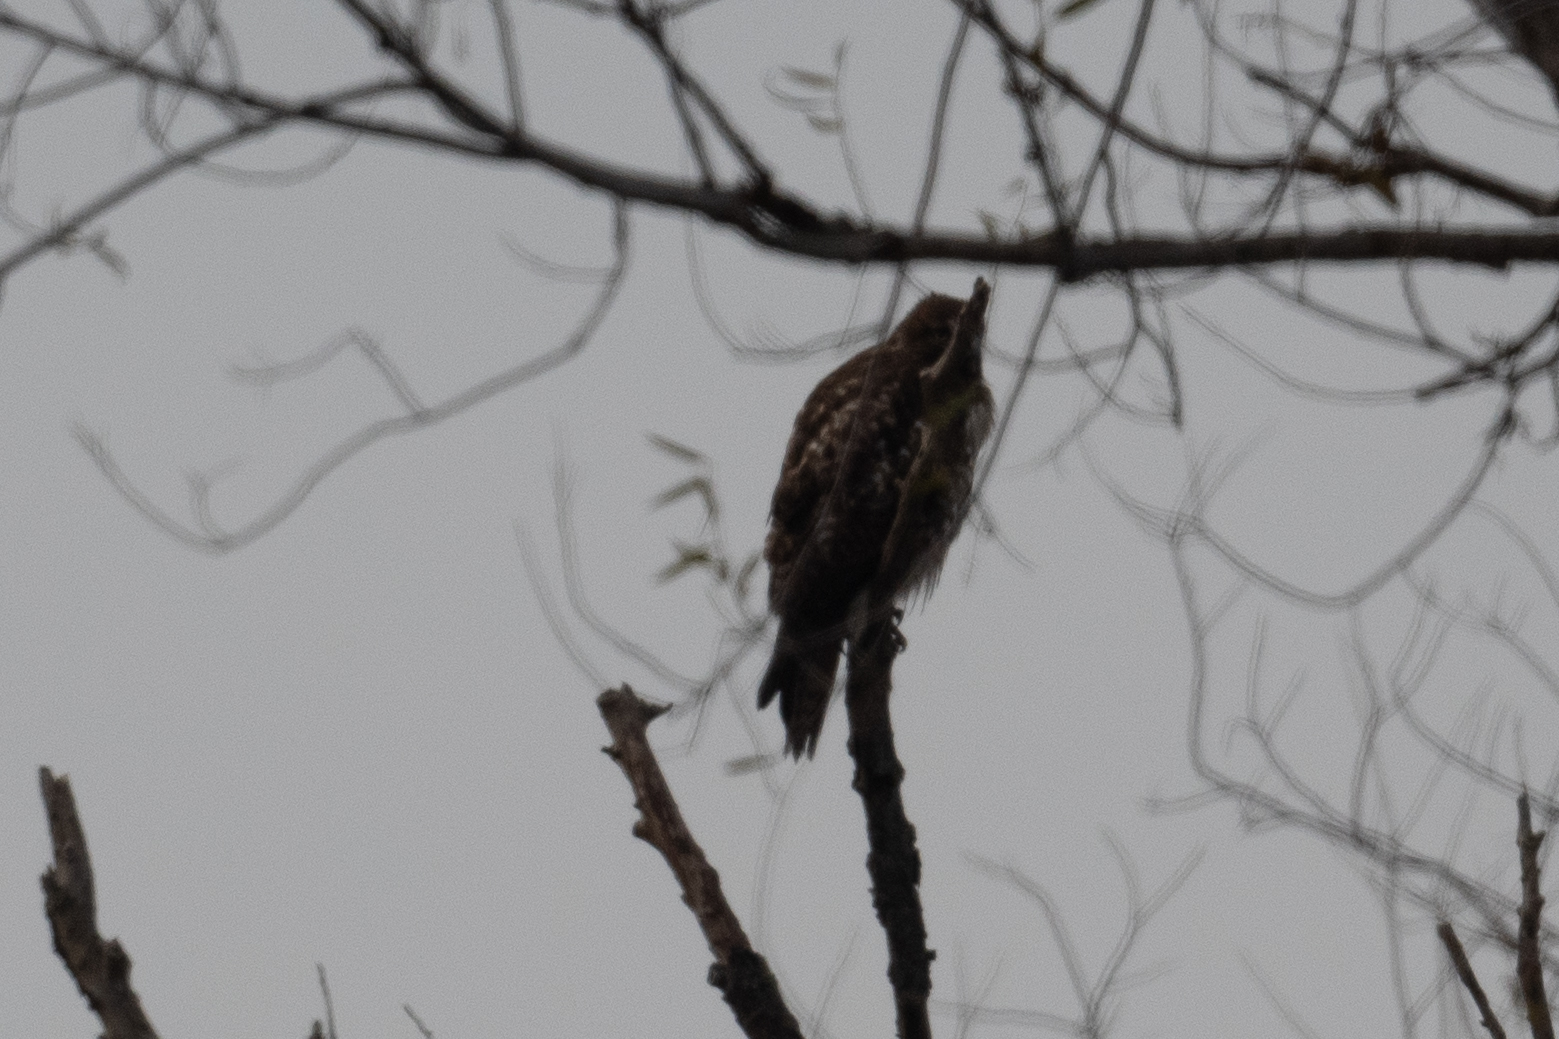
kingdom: Animalia
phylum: Chordata
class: Aves
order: Accipitriformes
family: Accipitridae
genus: Buteo
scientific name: Buteo jamaicensis
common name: Red-tailed hawk
